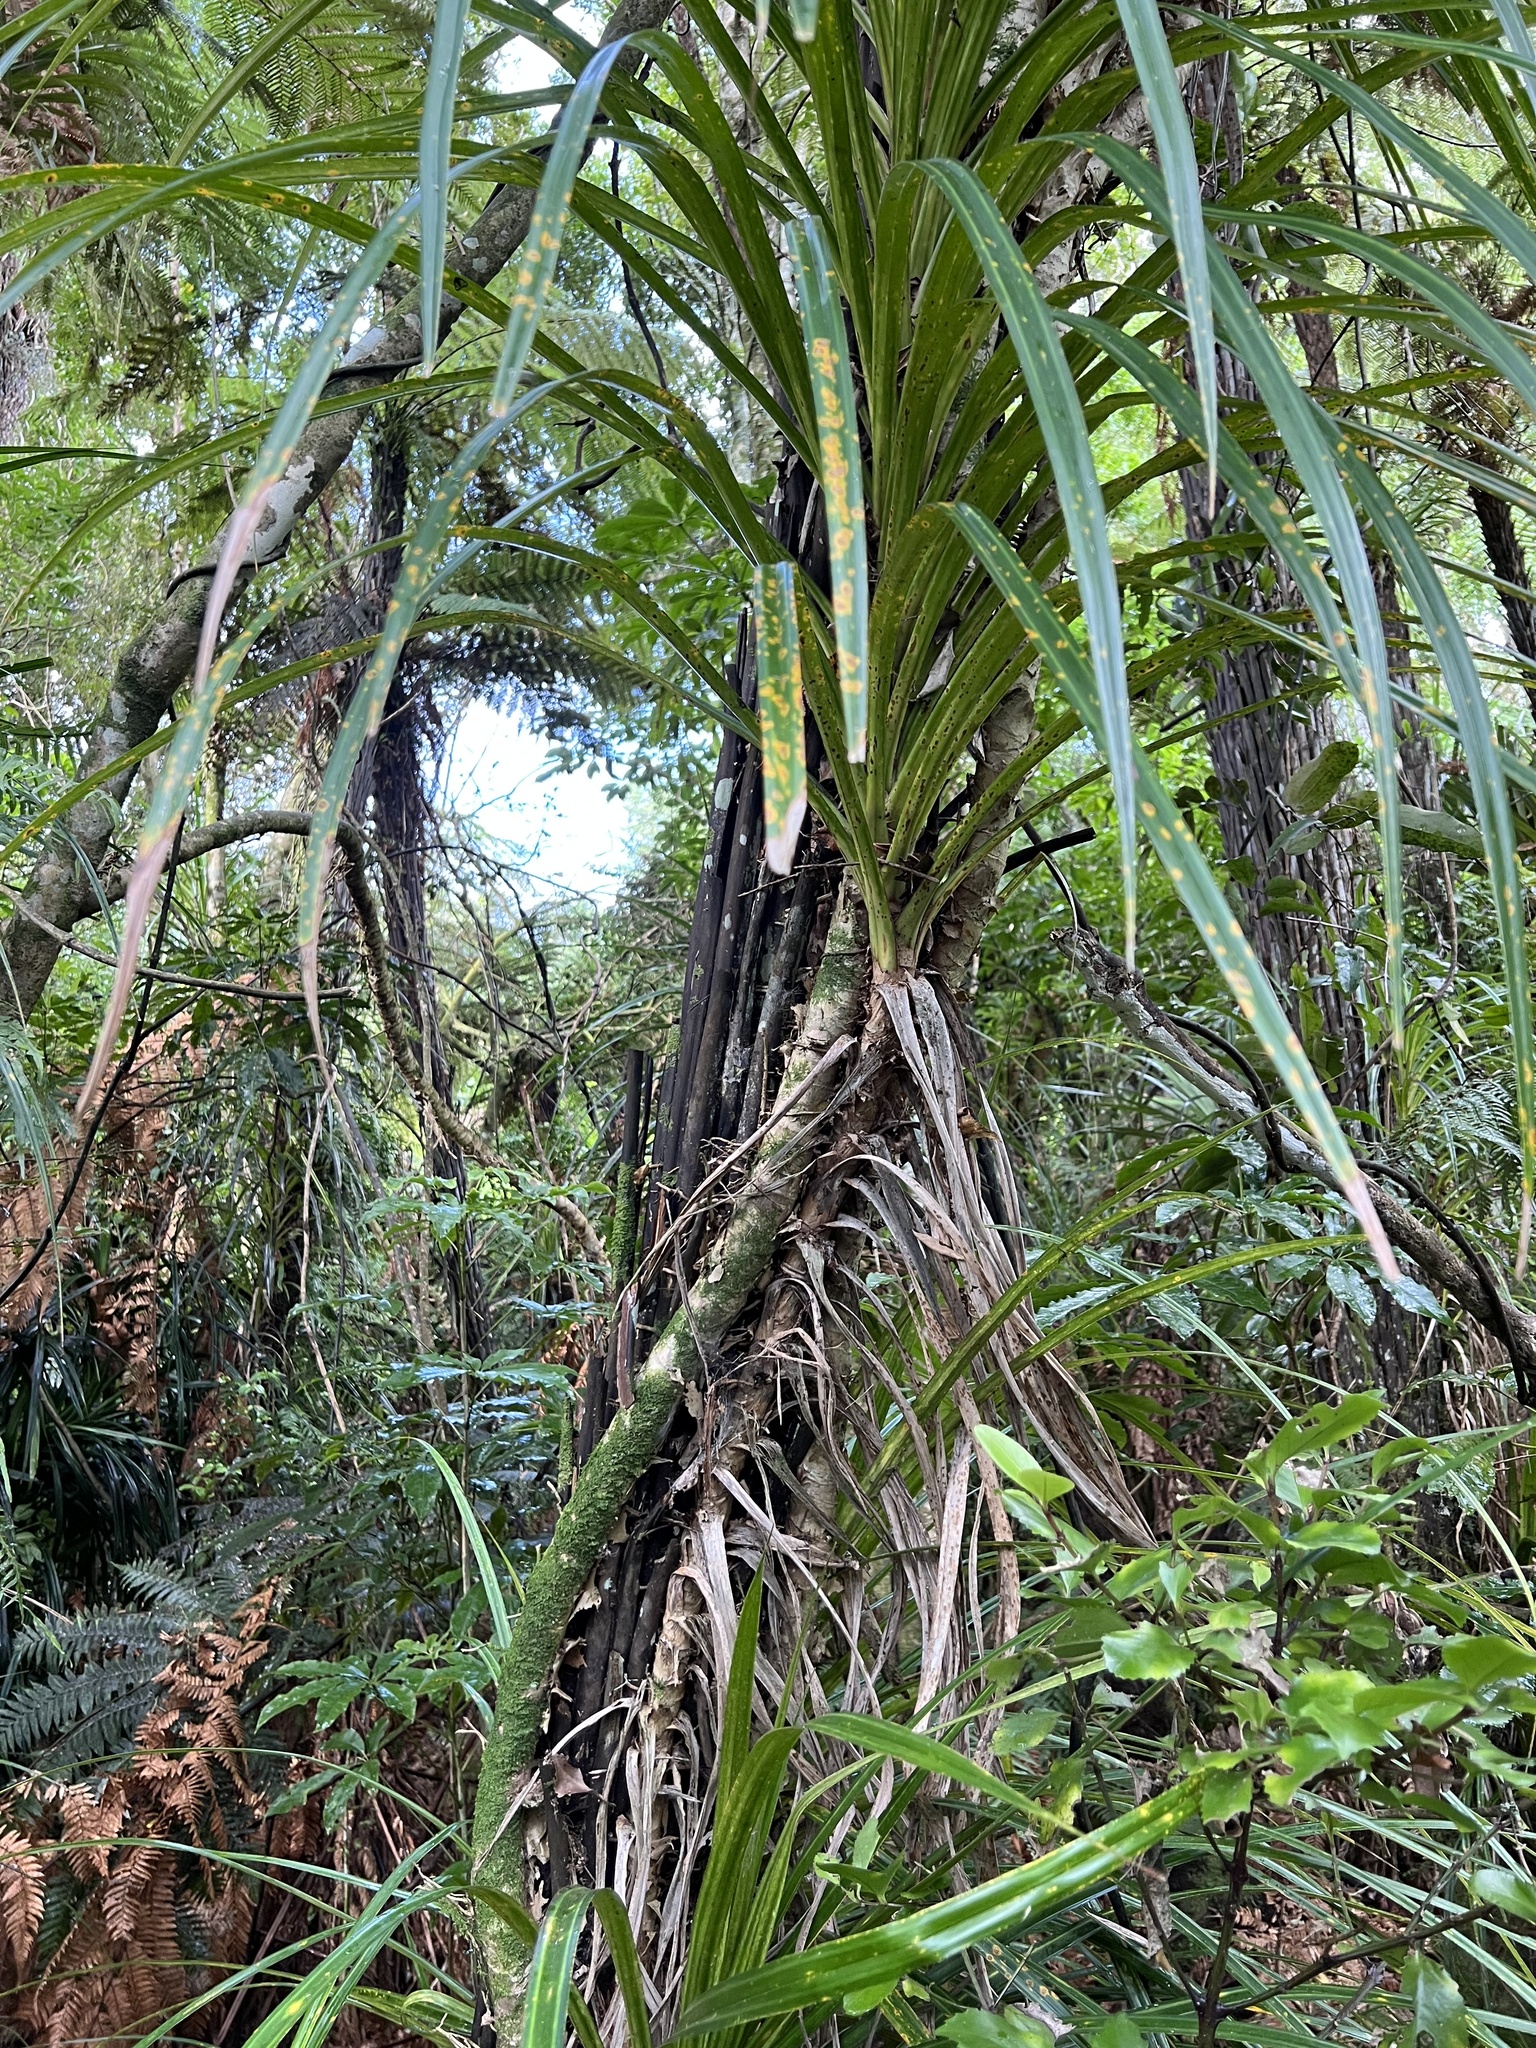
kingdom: Plantae
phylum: Tracheophyta
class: Liliopsida
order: Pandanales
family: Pandanaceae
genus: Freycinetia
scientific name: Freycinetia banksii
